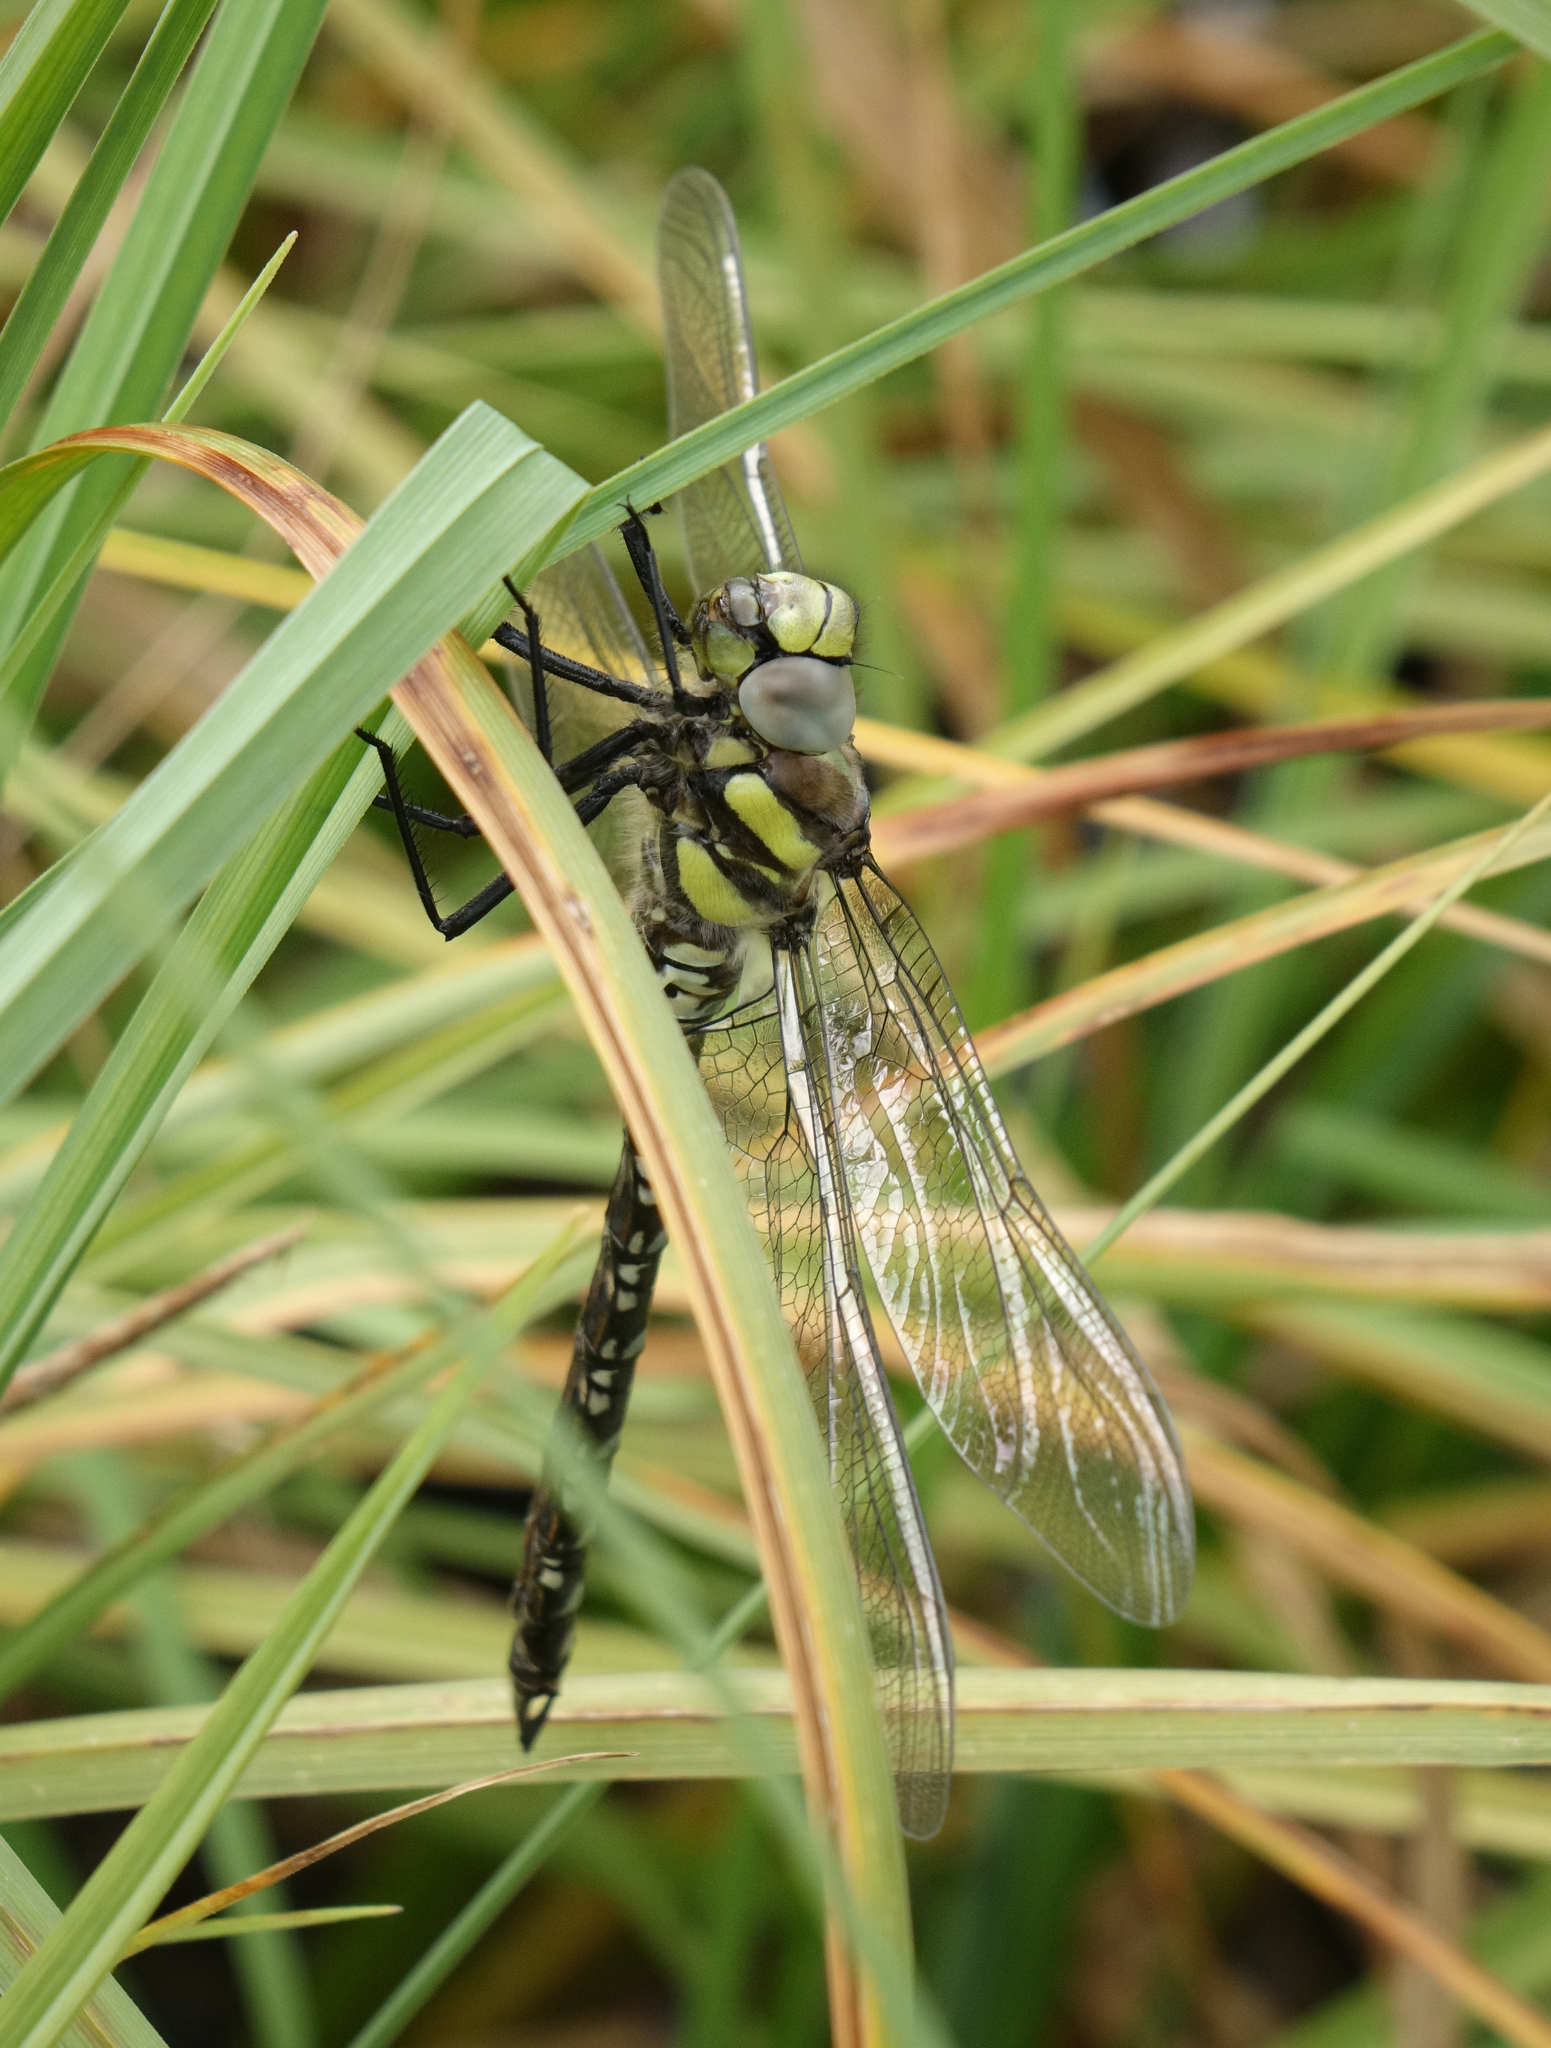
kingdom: Animalia
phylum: Arthropoda
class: Insecta
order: Odonata
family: Aeshnidae
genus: Aeshna
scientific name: Aeshna juncea
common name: Moorland hawker
